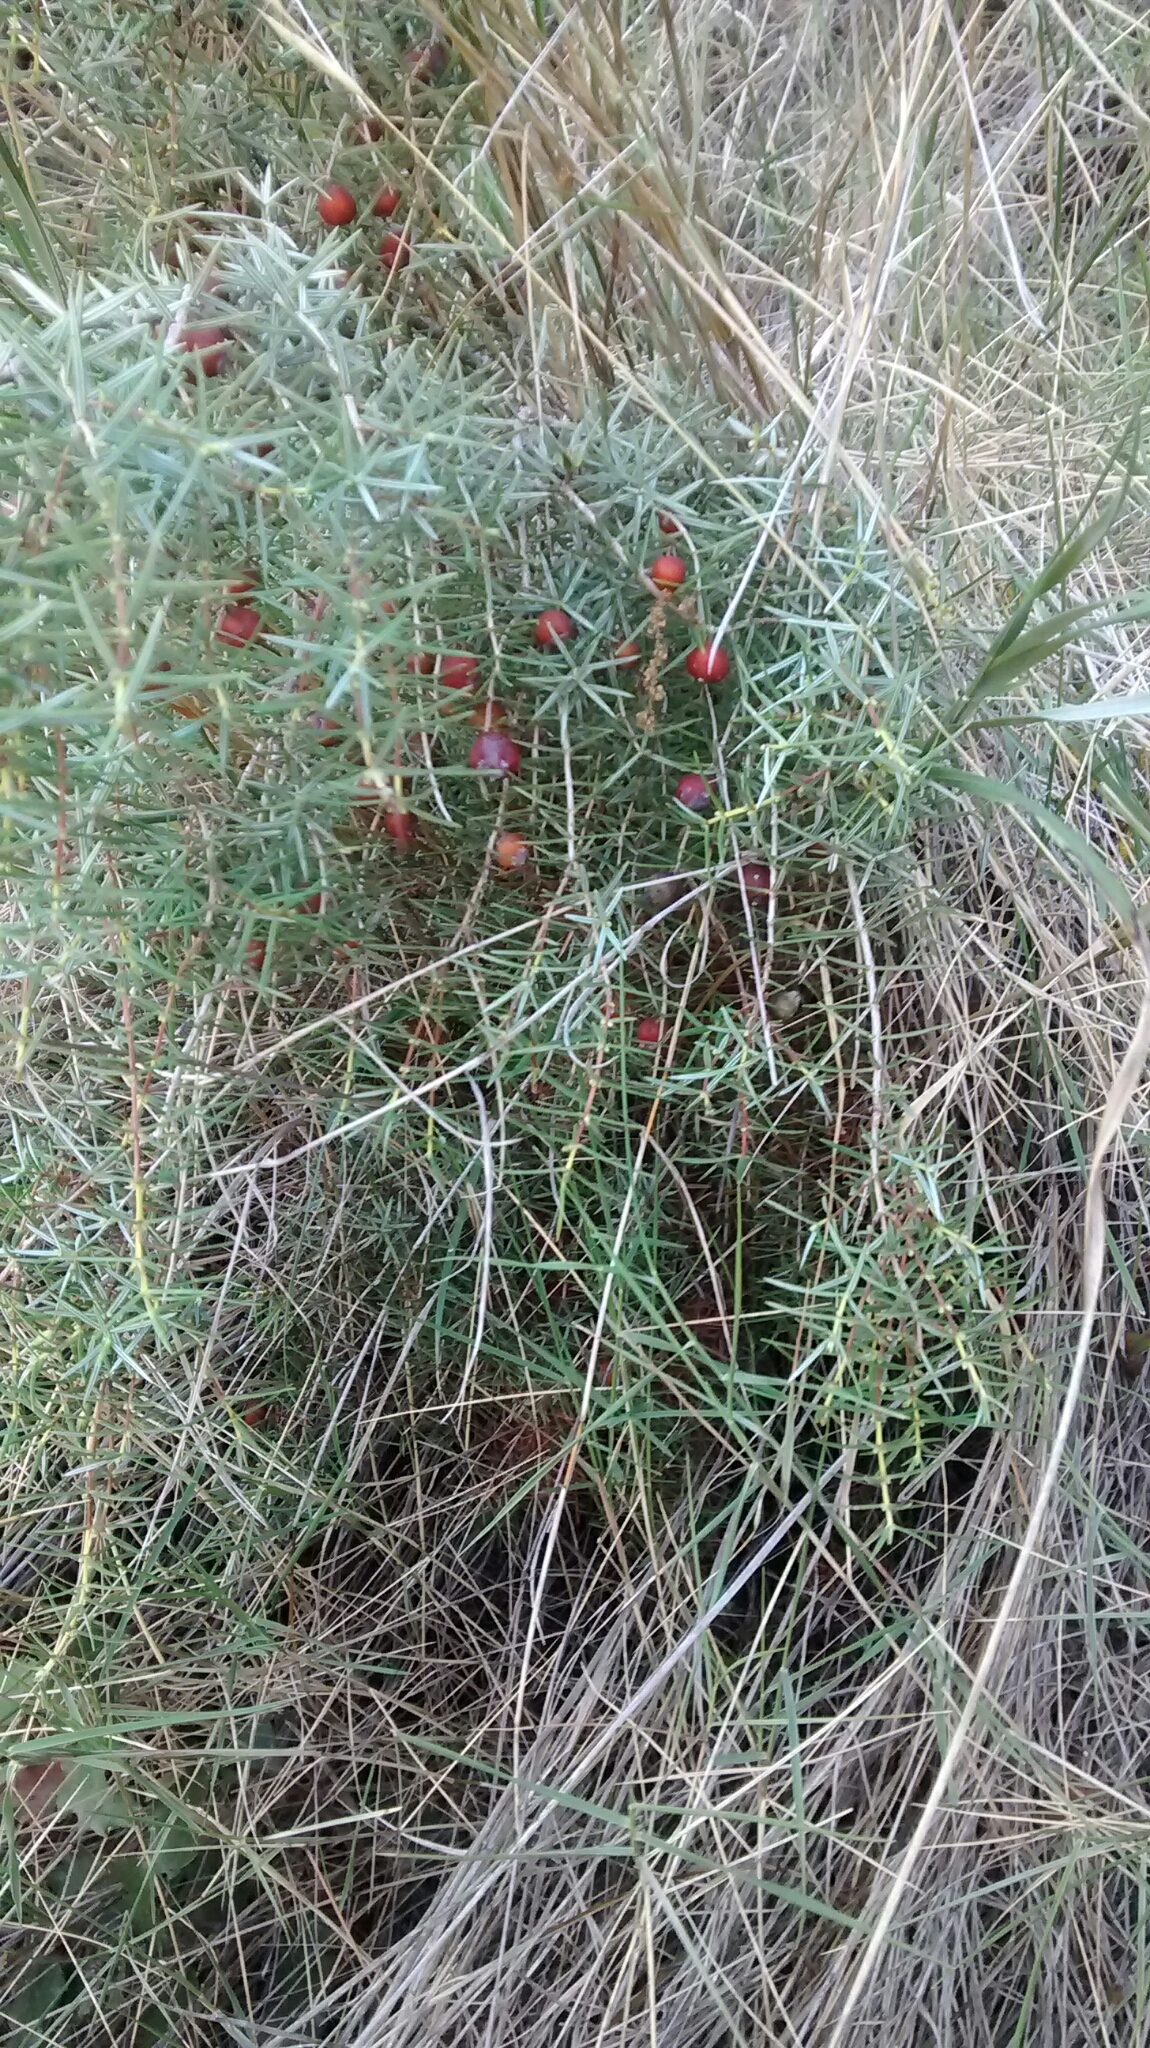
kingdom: Plantae
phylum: Tracheophyta
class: Pinopsida
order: Pinales
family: Cupressaceae
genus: Juniperus
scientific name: Juniperus oxycedrus
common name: Prickly juniper
